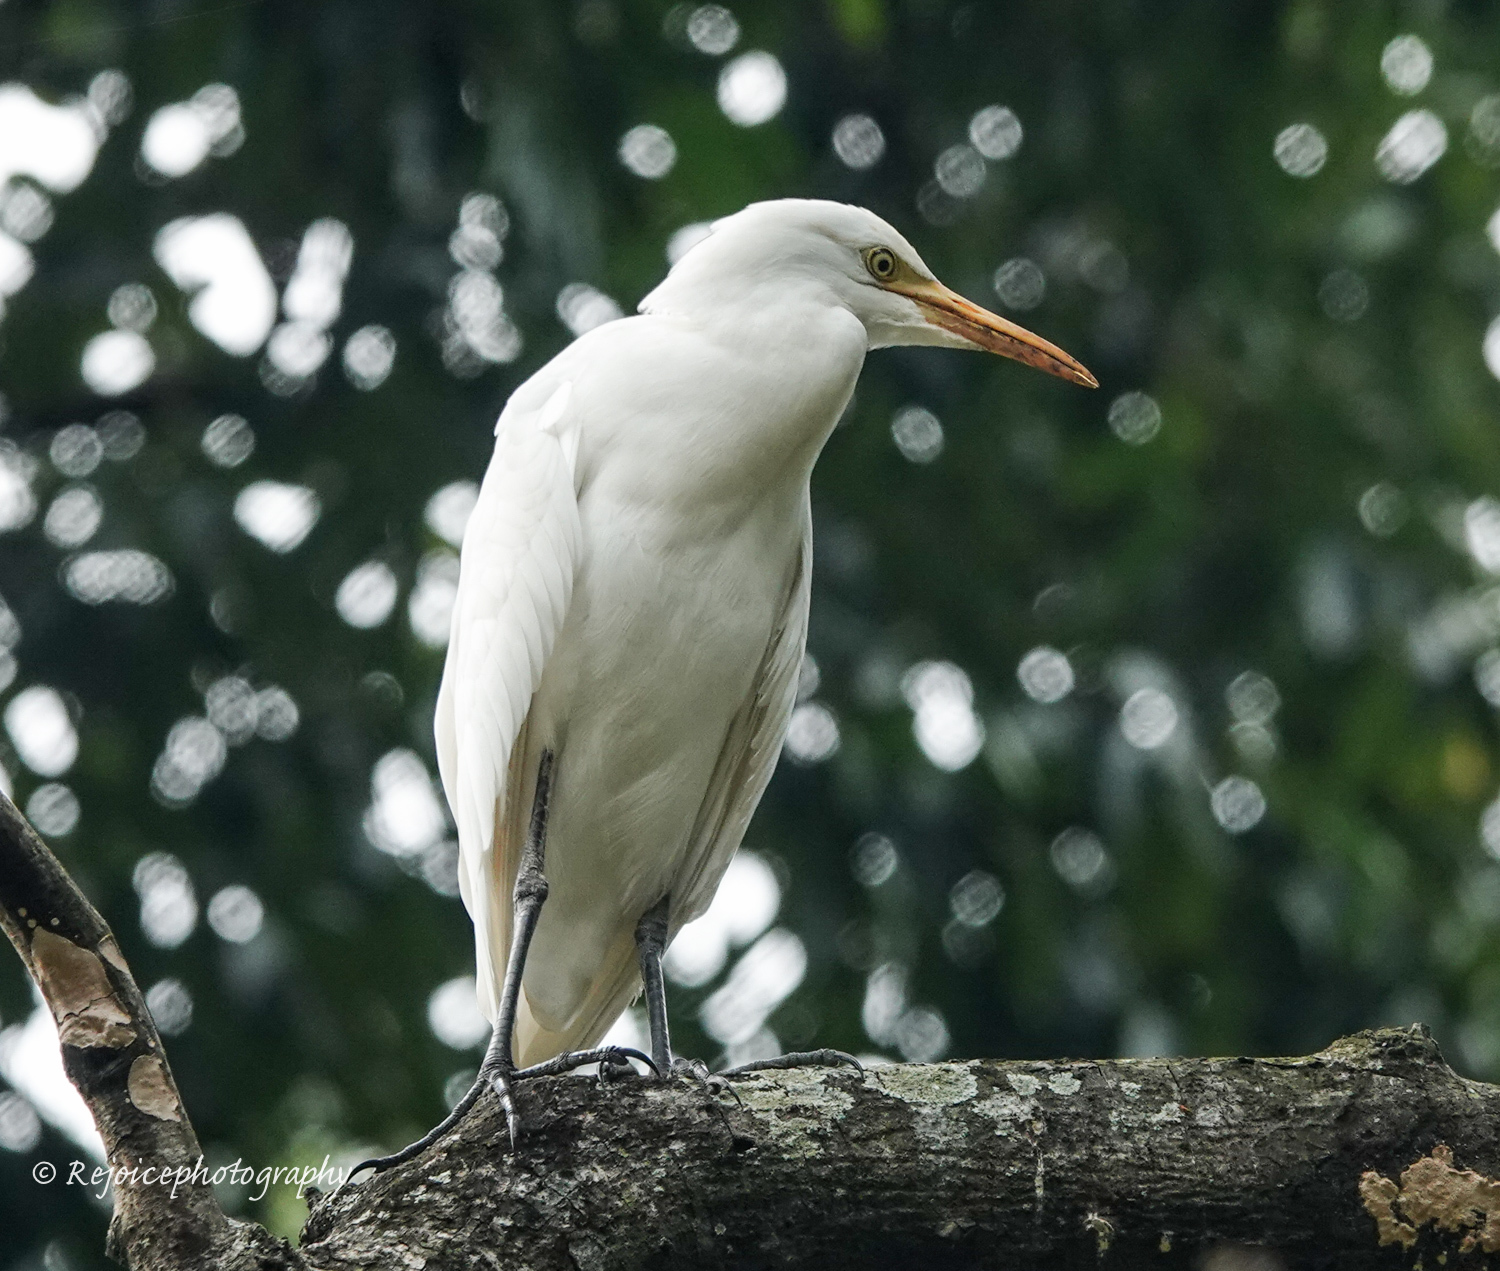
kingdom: Animalia
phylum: Chordata
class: Aves
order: Pelecaniformes
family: Ardeidae
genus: Bubulcus
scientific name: Bubulcus coromandus
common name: Eastern cattle egret
